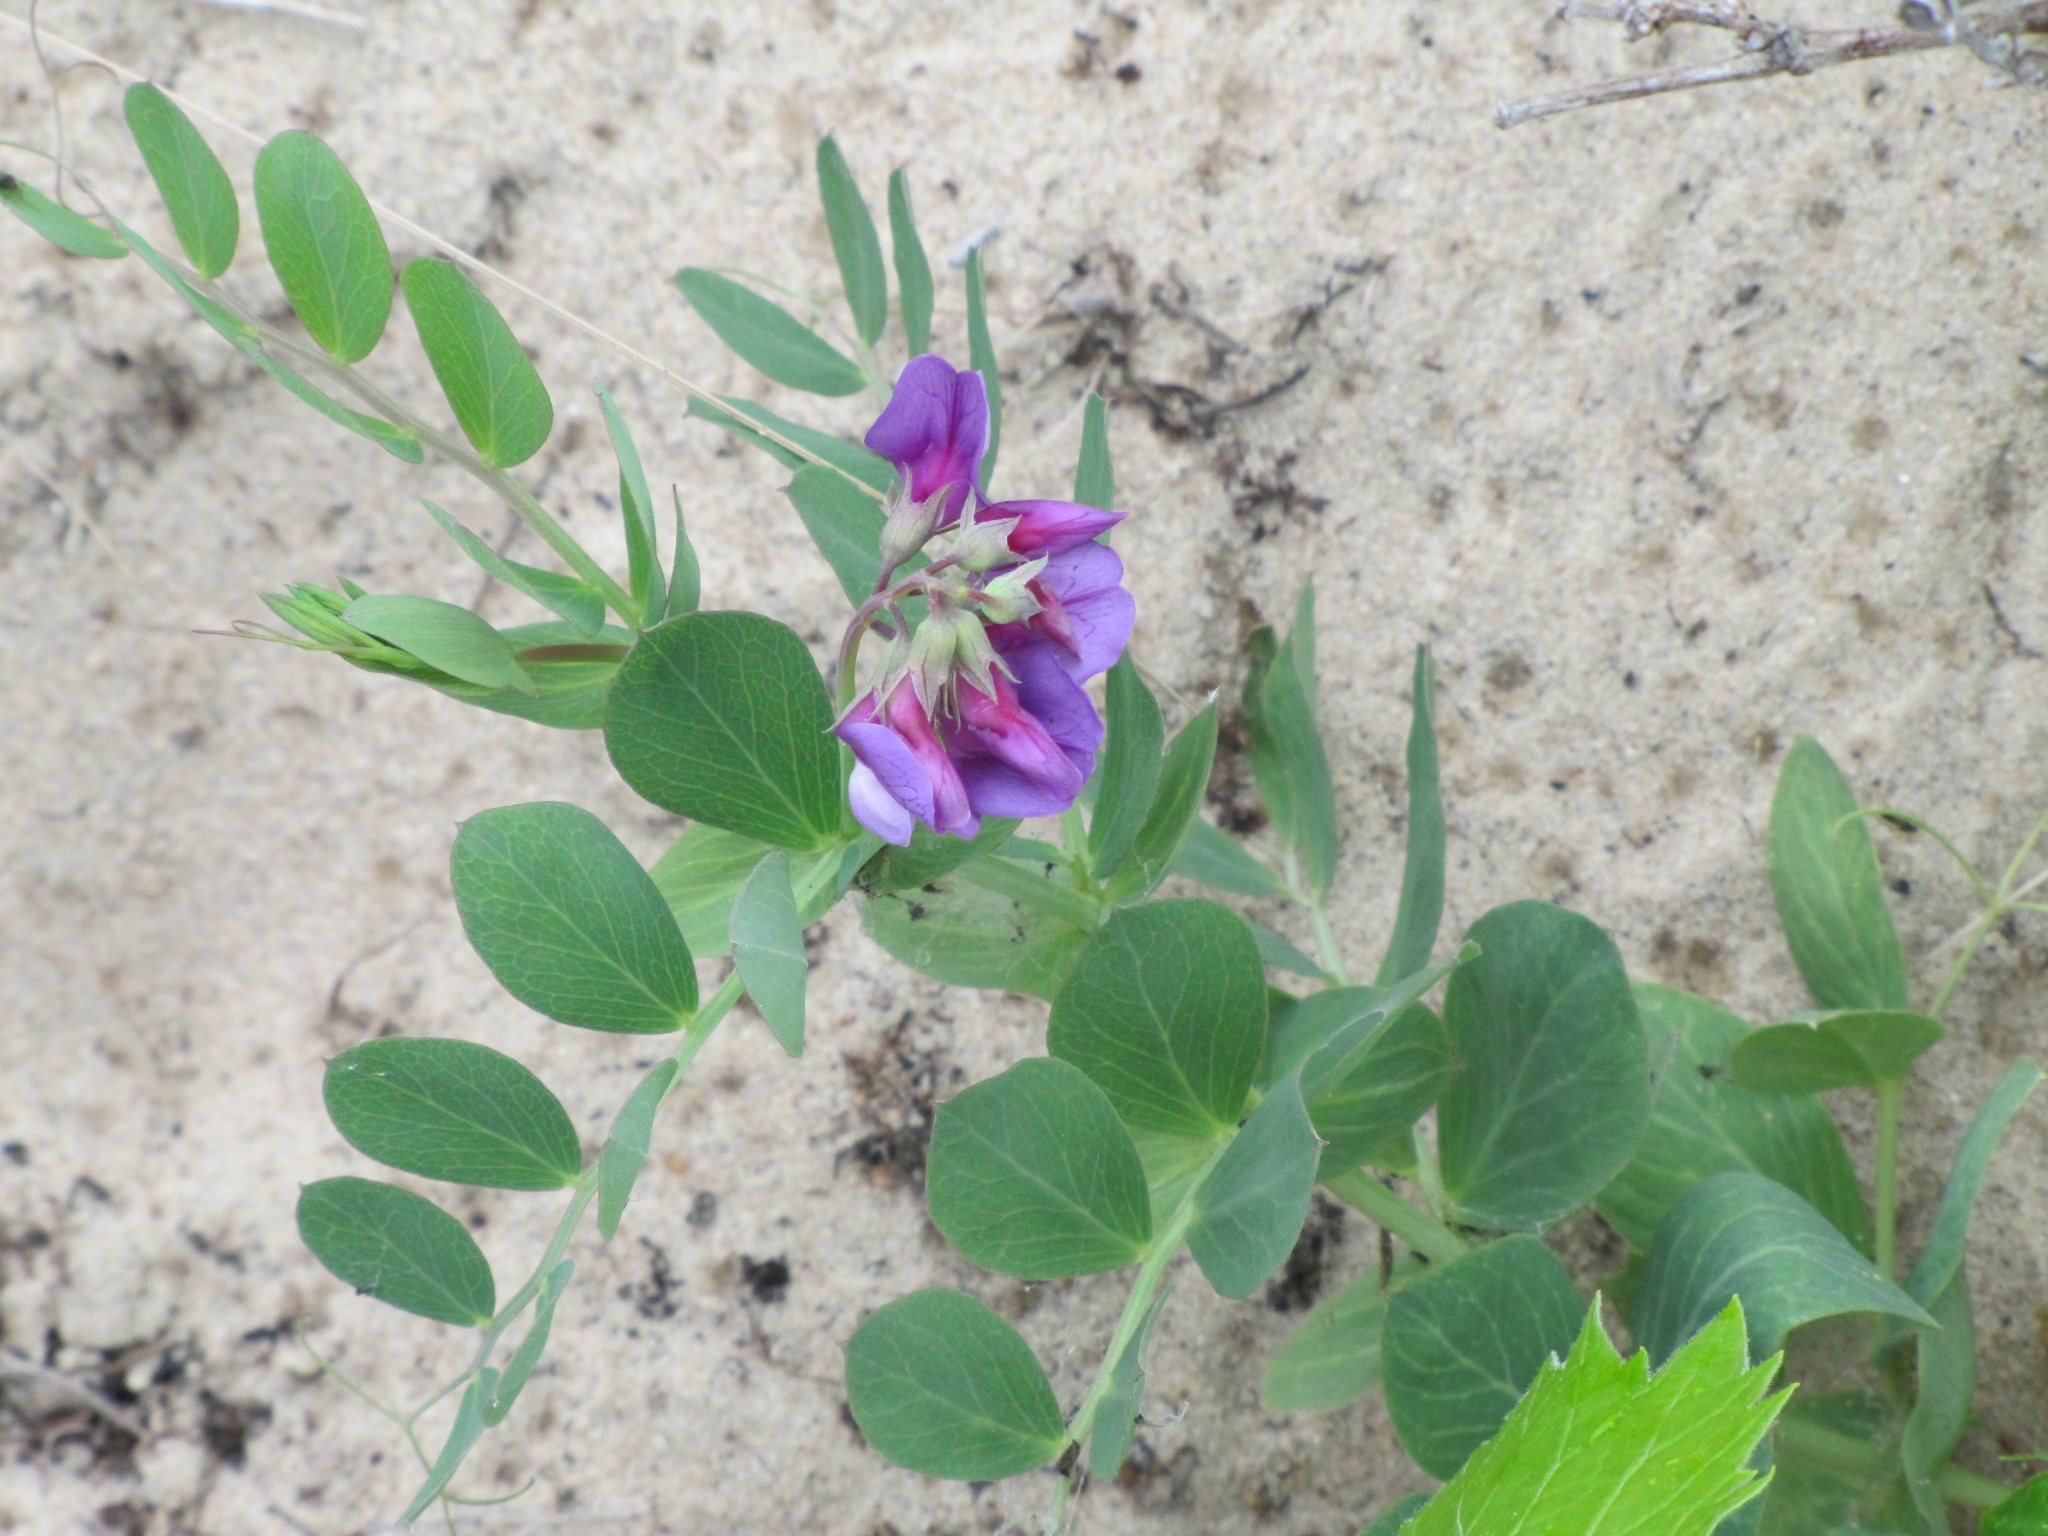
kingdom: Plantae
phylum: Tracheophyta
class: Magnoliopsida
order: Fabales
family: Fabaceae
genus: Lathyrus
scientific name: Lathyrus japonicus
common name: Sea pea
